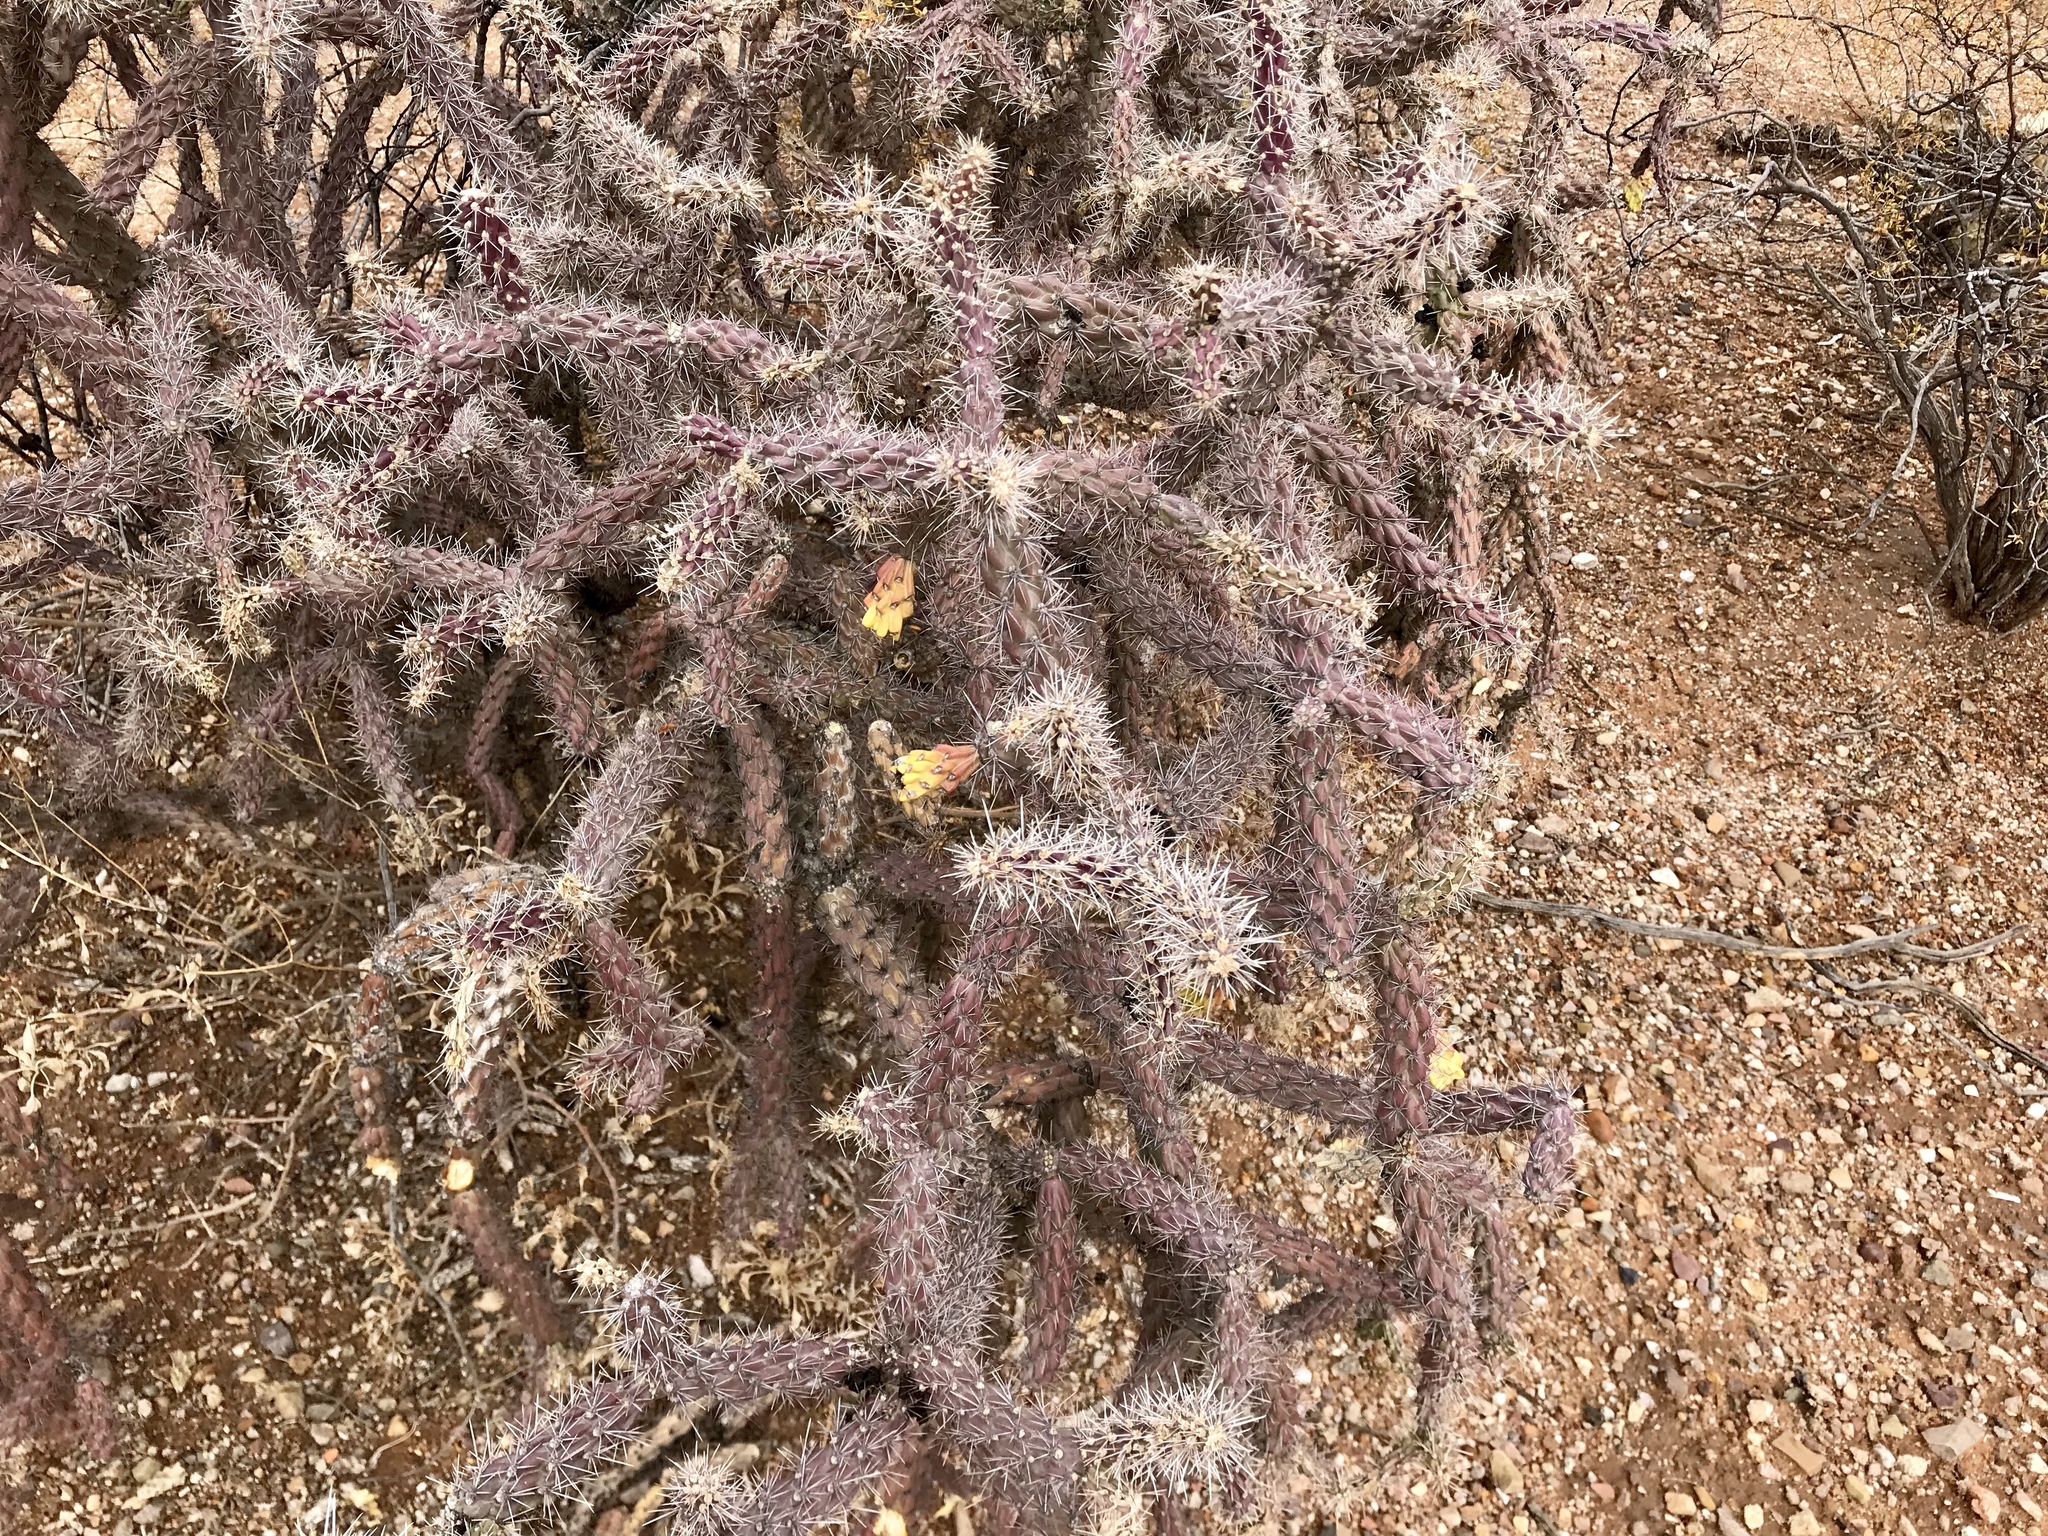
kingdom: Plantae
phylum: Tracheophyta
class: Magnoliopsida
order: Caryophyllales
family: Cactaceae
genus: Cylindropuntia
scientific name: Cylindropuntia imbricata
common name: Candelabrum cactus
